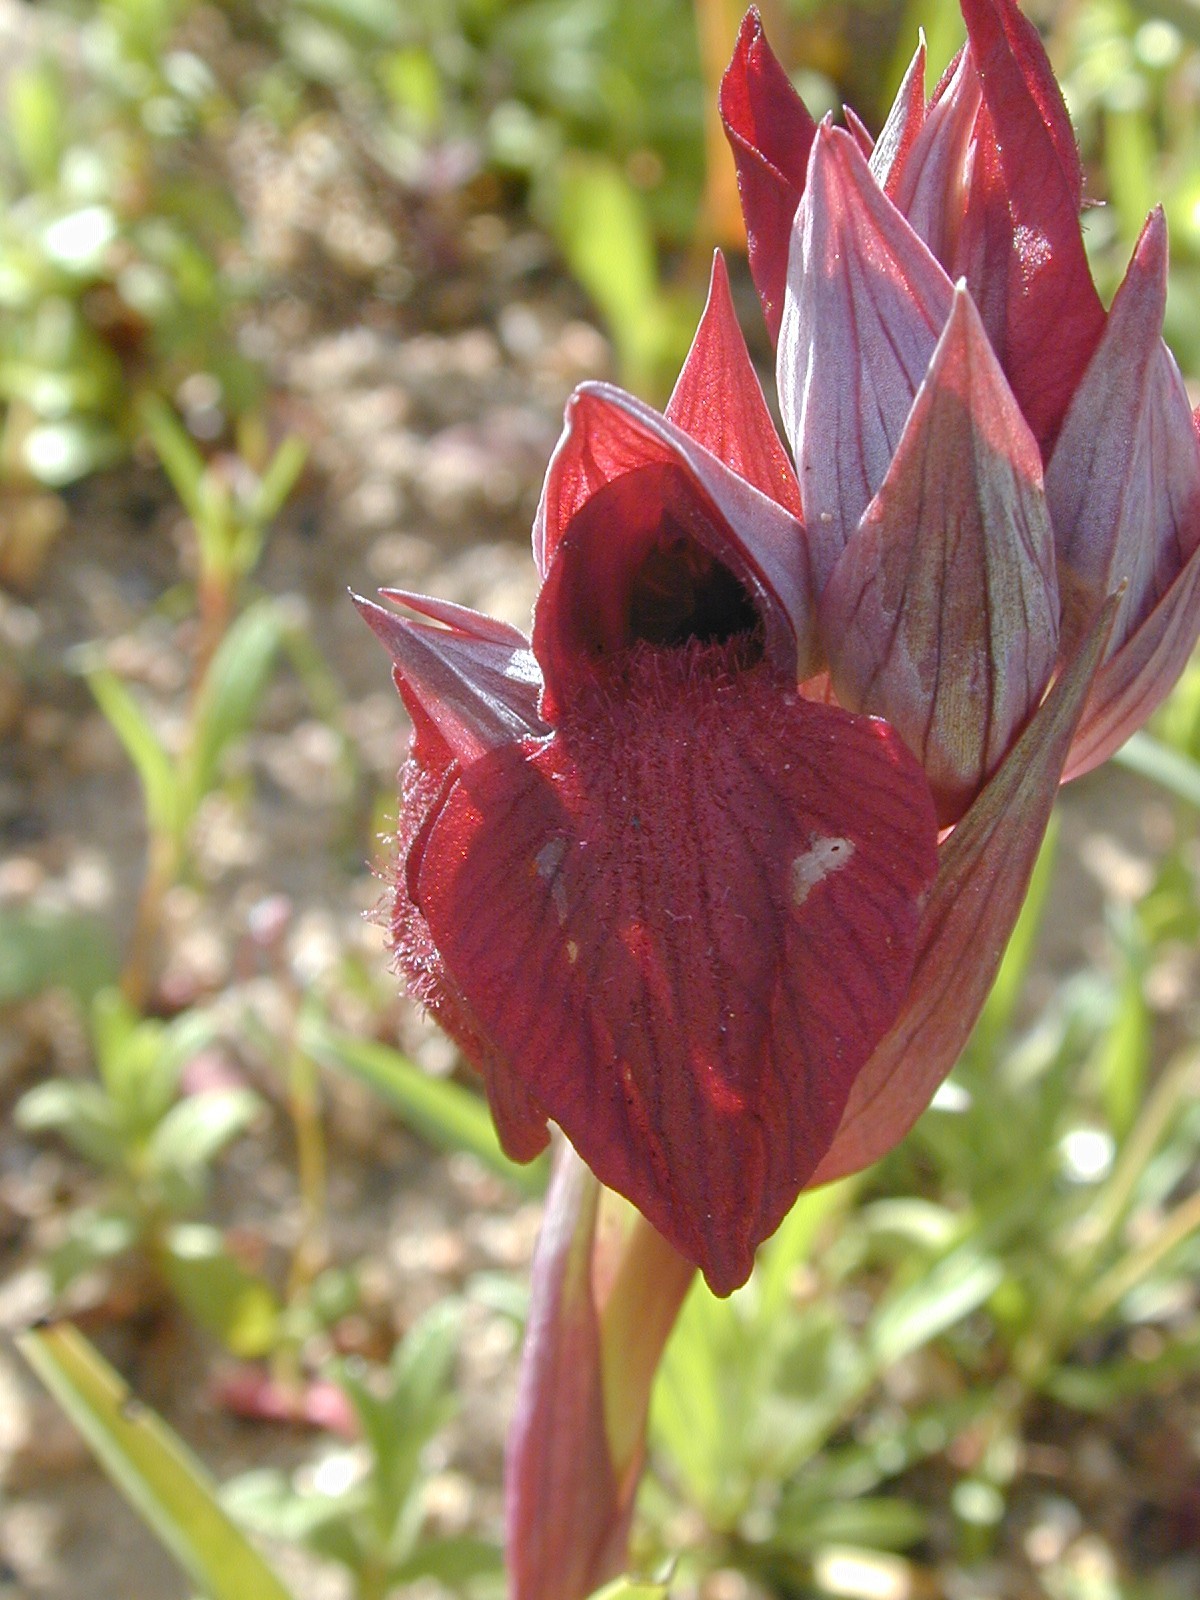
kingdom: Plantae
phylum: Tracheophyta
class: Liliopsida
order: Asparagales
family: Orchidaceae
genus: Serapias
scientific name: Serapias cordigera
